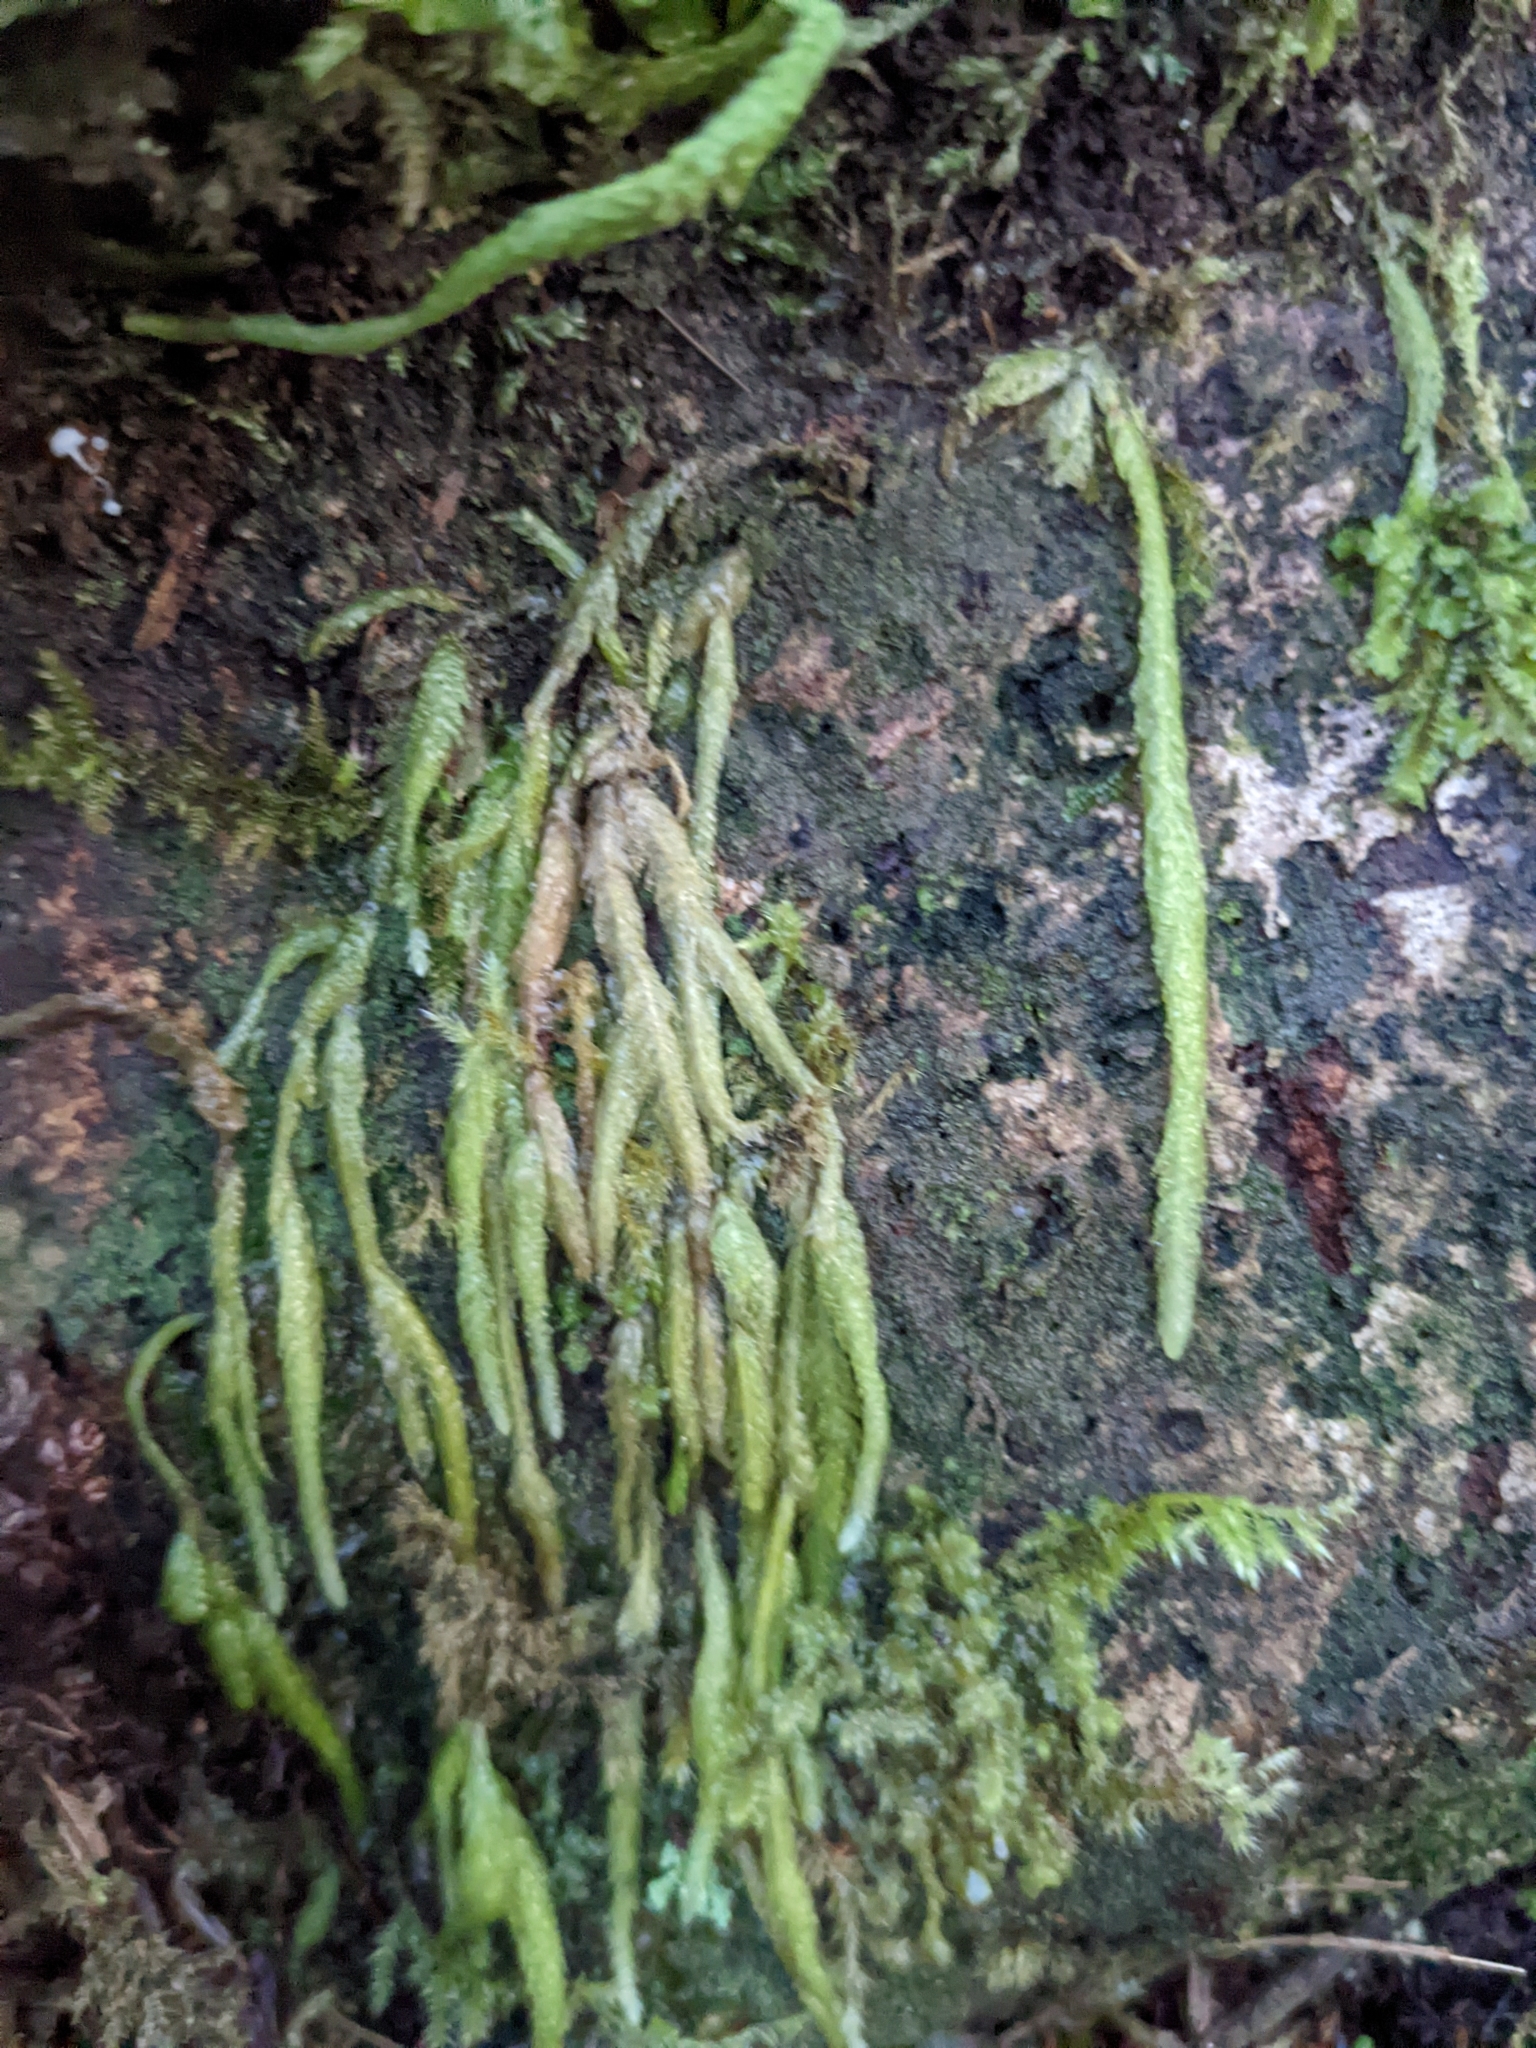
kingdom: Plantae
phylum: Bryophyta
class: Bryopsida
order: Hypnales
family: Plagiotheciaceae
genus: Plagiothecium
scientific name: Plagiothecium undulatum
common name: Waved silk-moss
